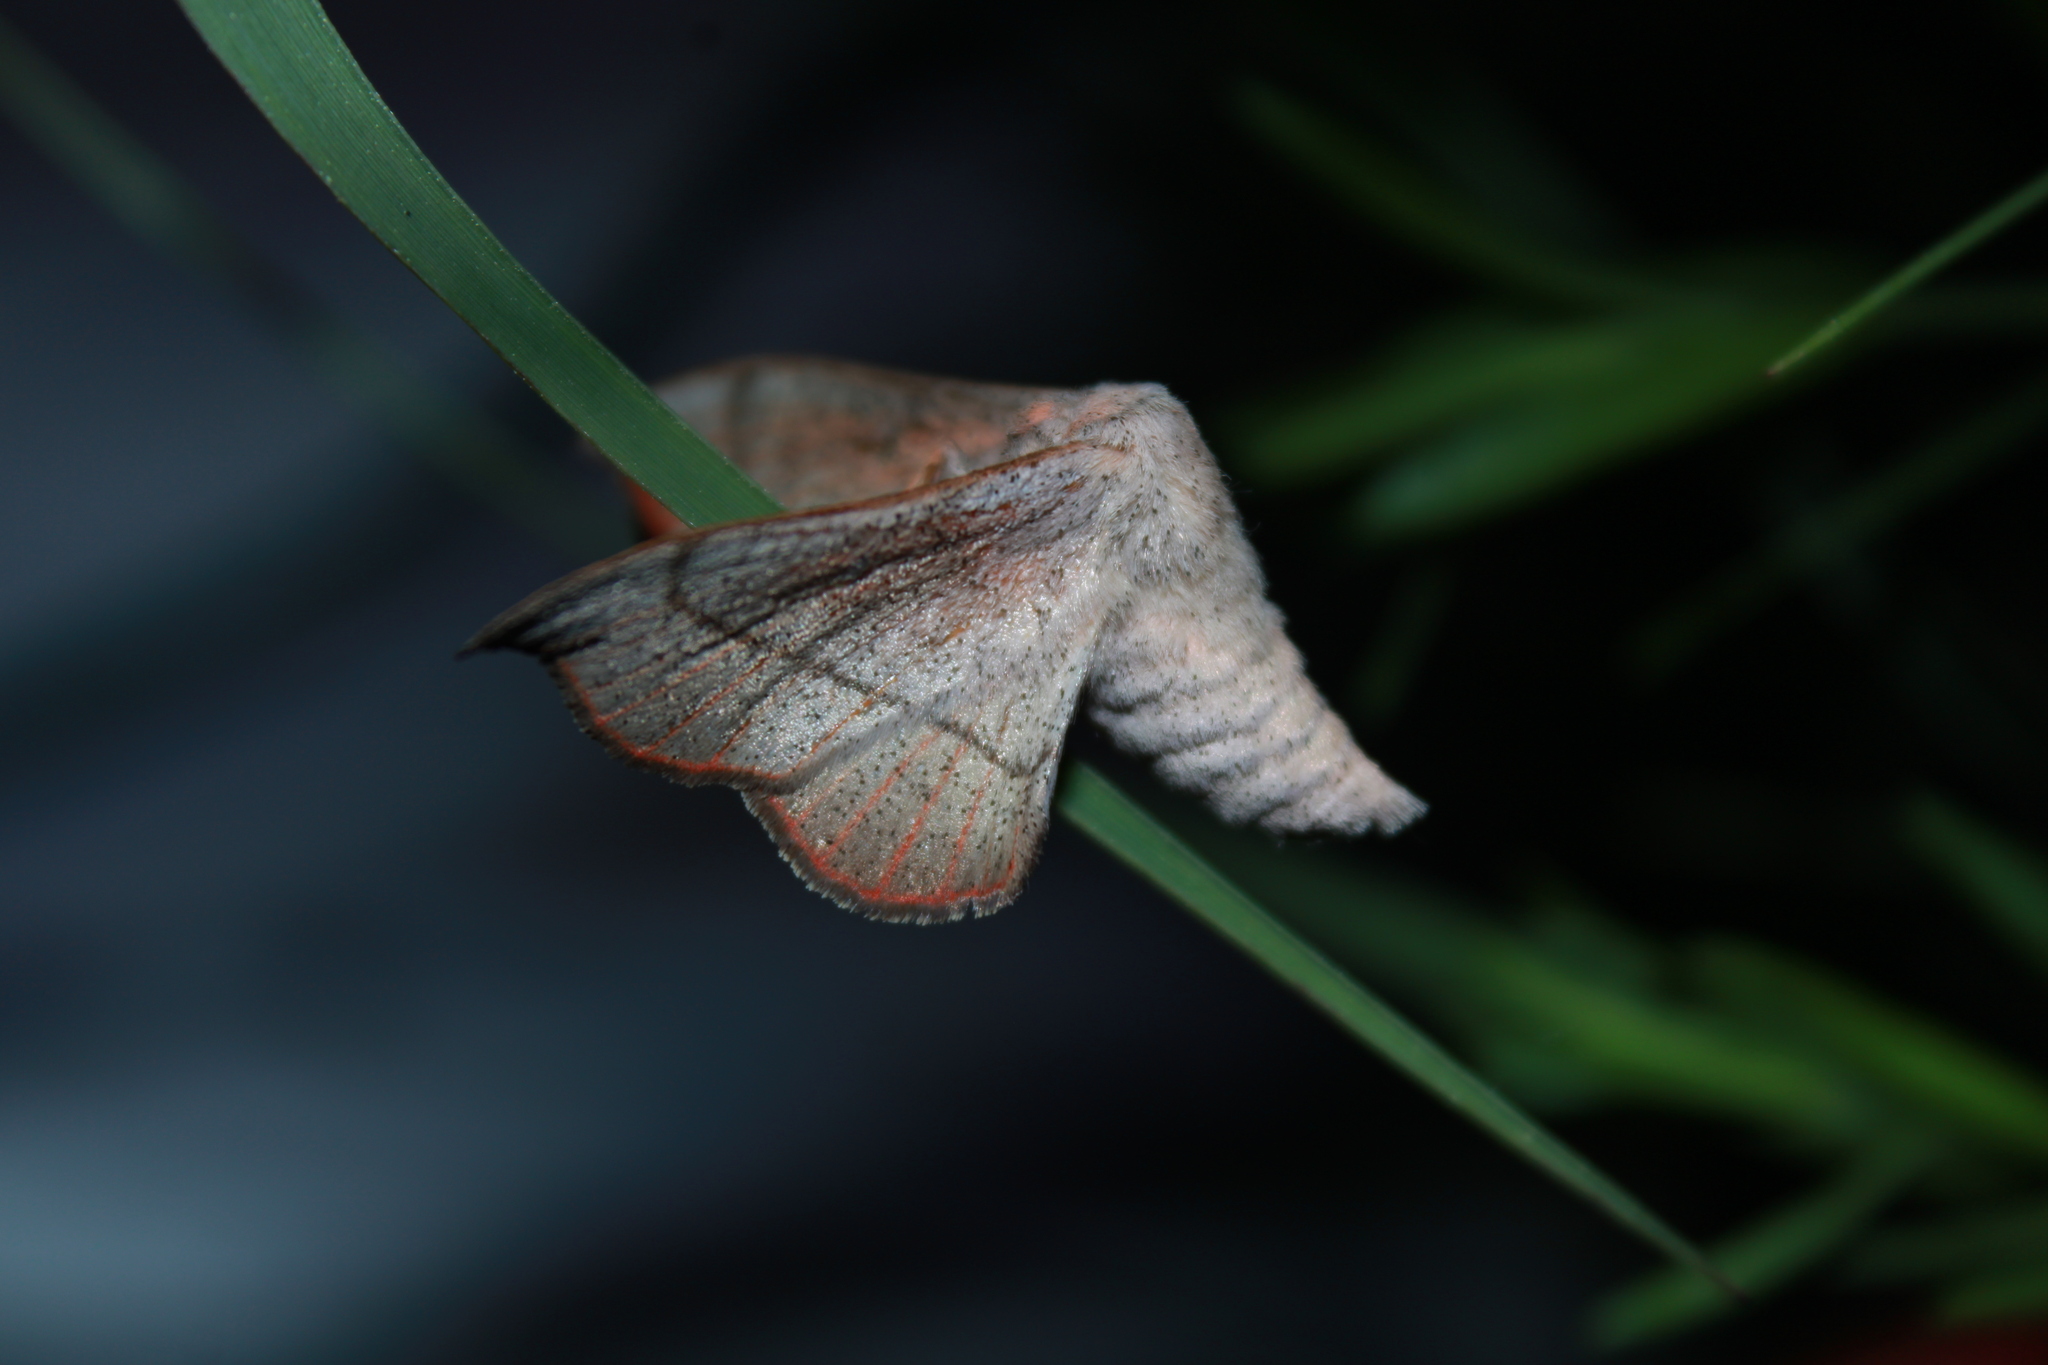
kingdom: Animalia
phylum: Arthropoda
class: Insecta
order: Lepidoptera
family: Mimallonidae
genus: Cicinnus
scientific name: Cicinnus melsheimeri
